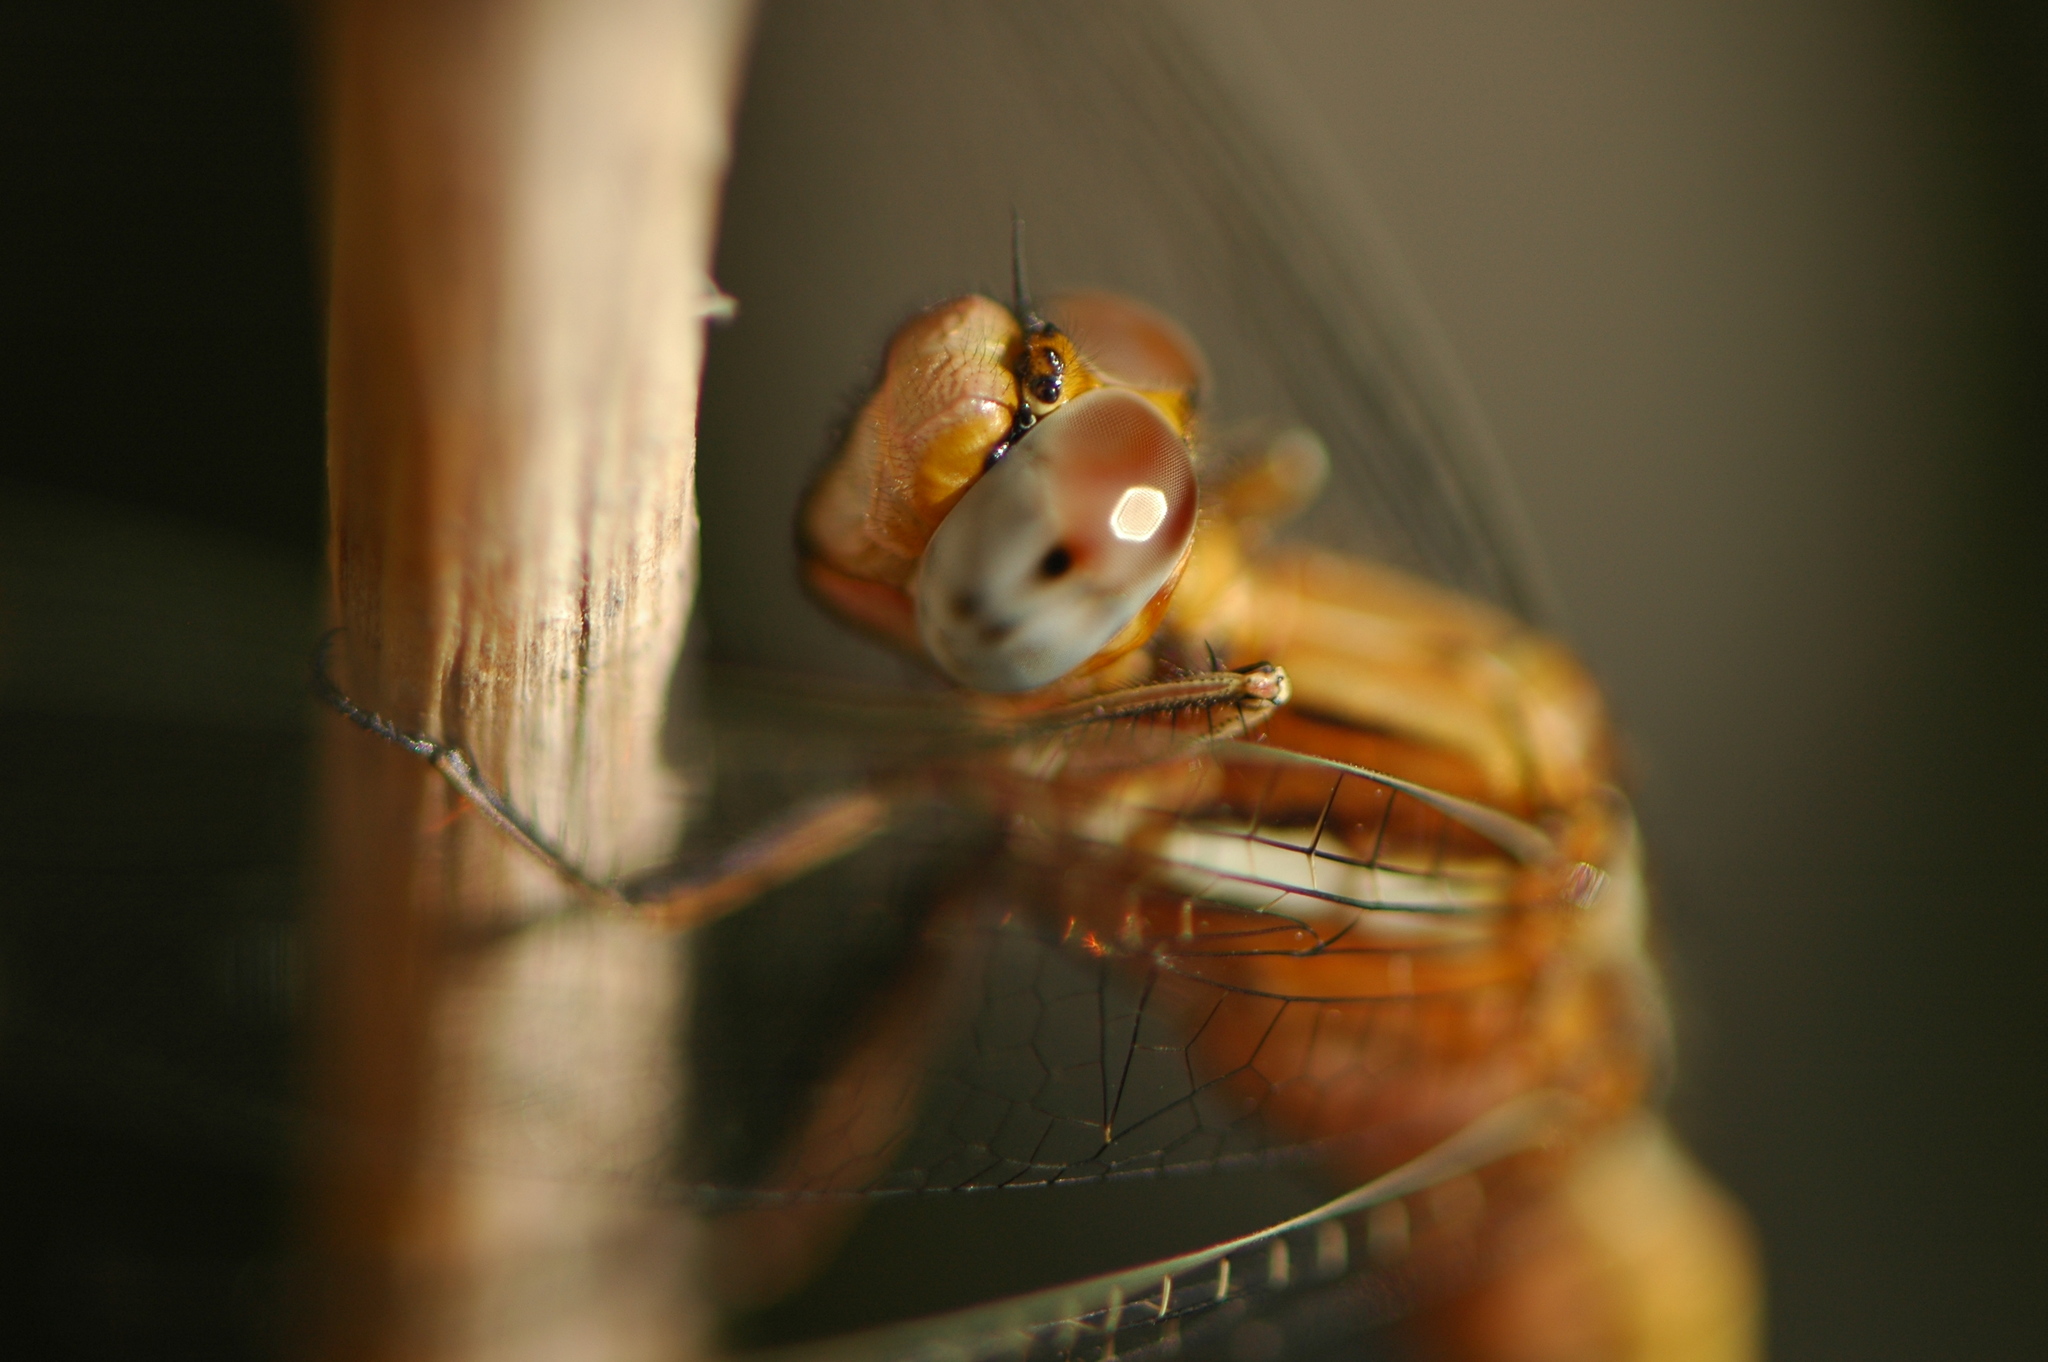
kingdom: Animalia
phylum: Arthropoda
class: Insecta
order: Odonata
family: Libellulidae
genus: Orthetrum
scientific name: Orthetrum chrysostigma
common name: Epaulet skimmer
